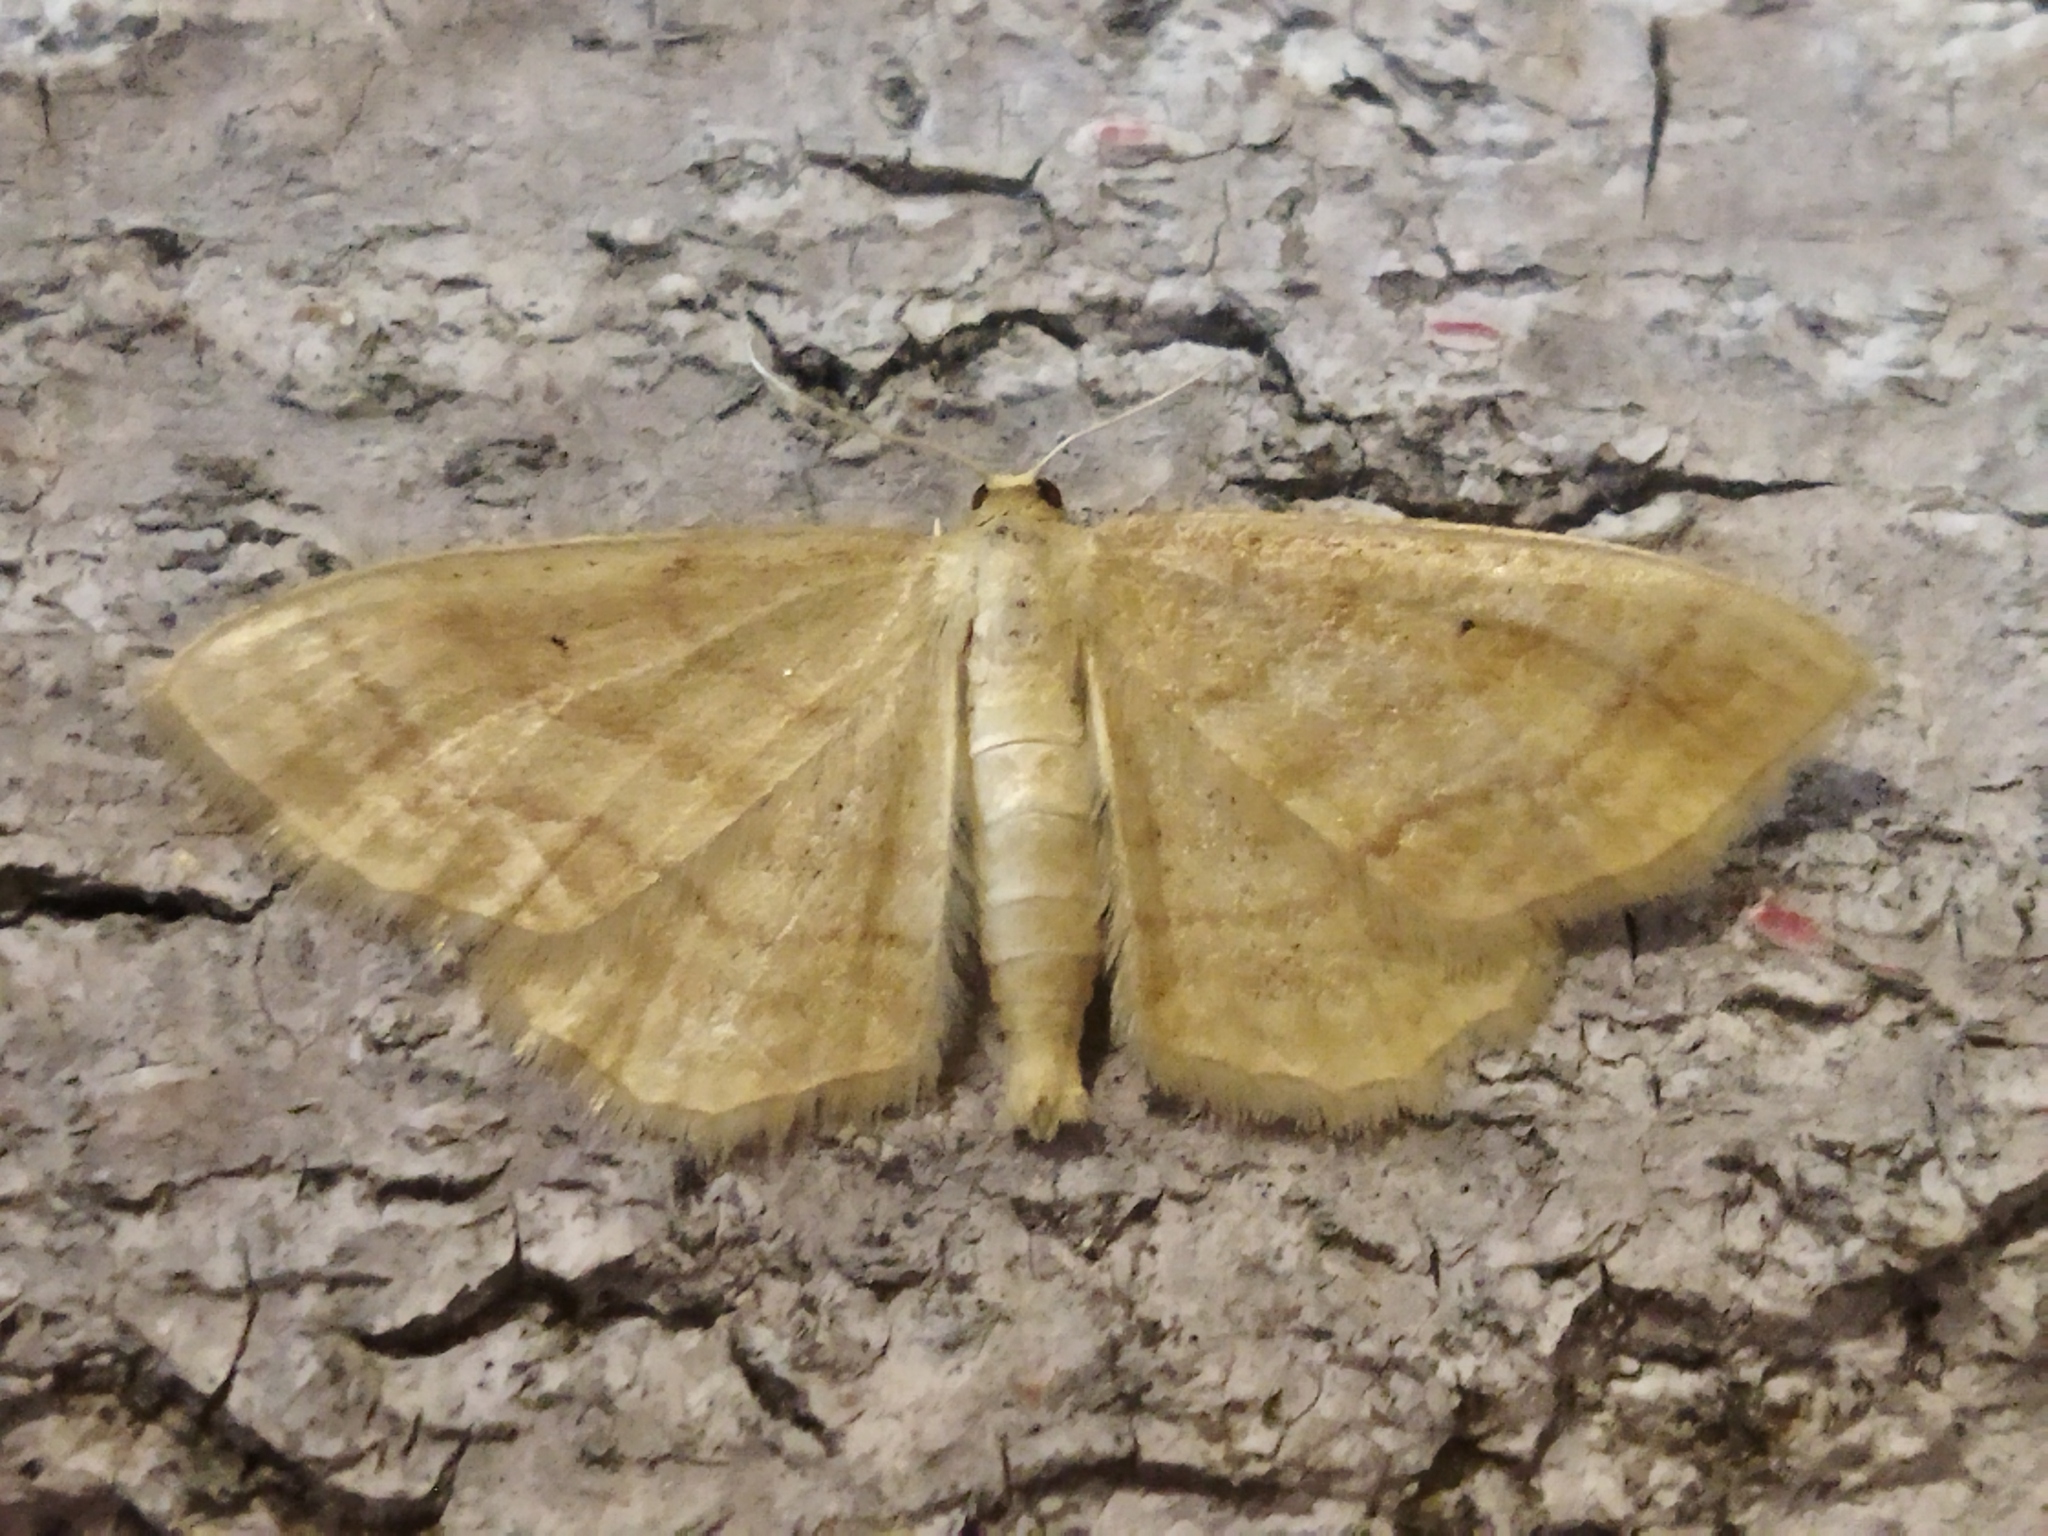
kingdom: Animalia
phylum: Arthropoda
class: Insecta
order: Lepidoptera
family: Geometridae
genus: Idaea
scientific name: Idaea rufaria
